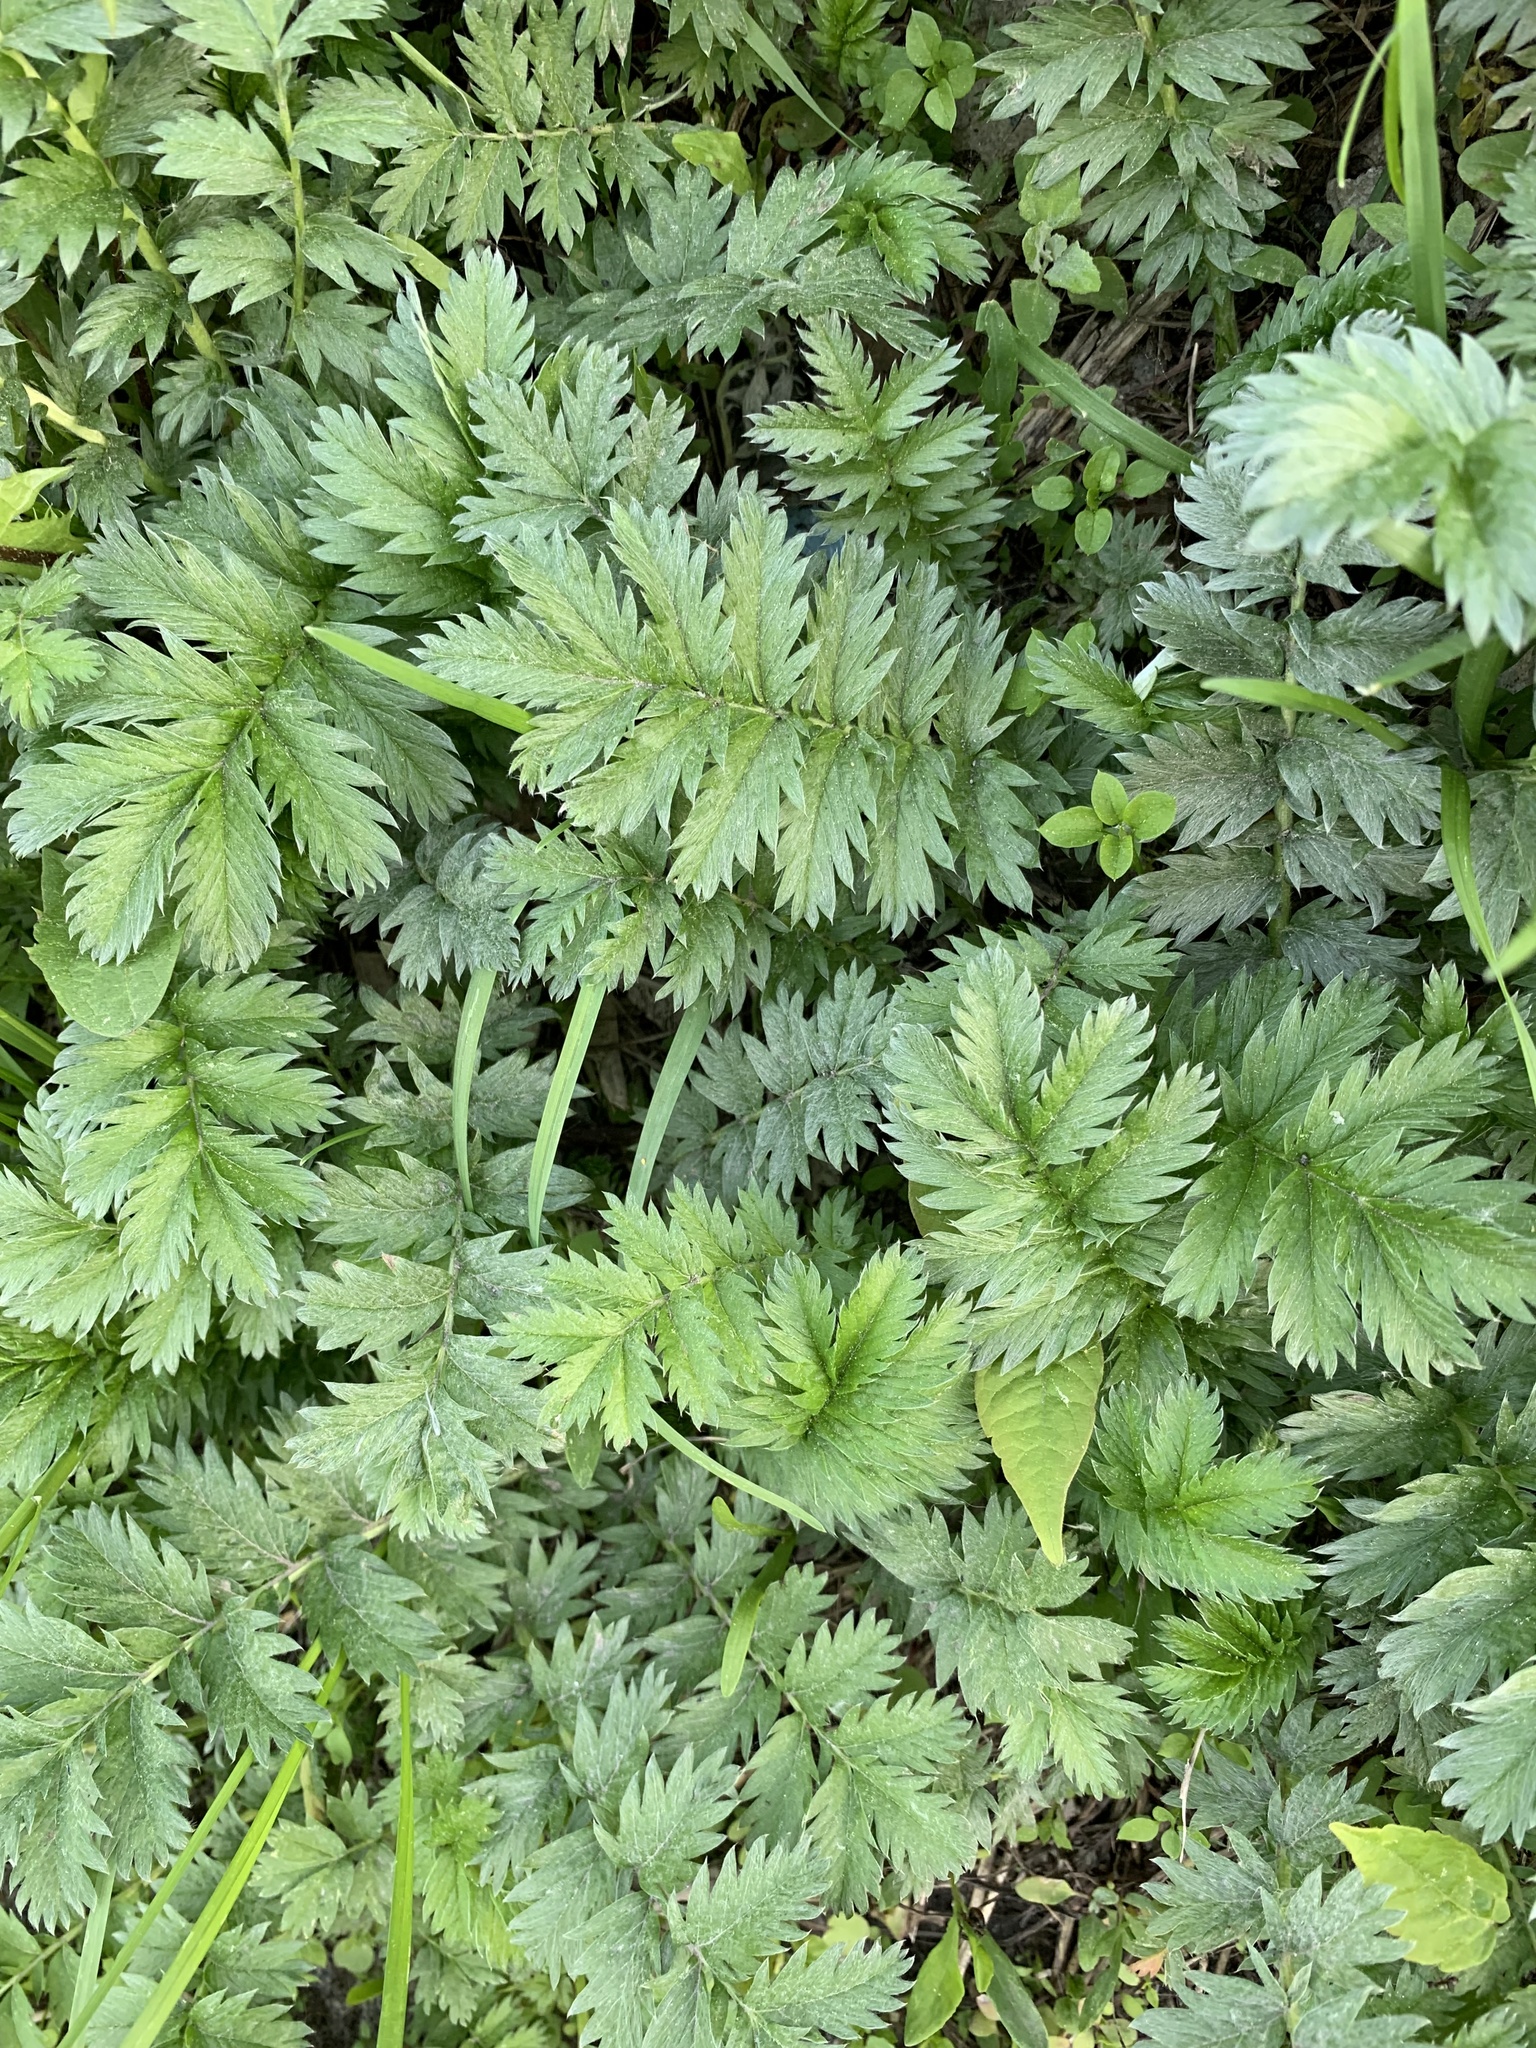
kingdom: Plantae
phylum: Tracheophyta
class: Magnoliopsida
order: Rosales
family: Rosaceae
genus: Argentina
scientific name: Argentina anserina
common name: Common silverweed
